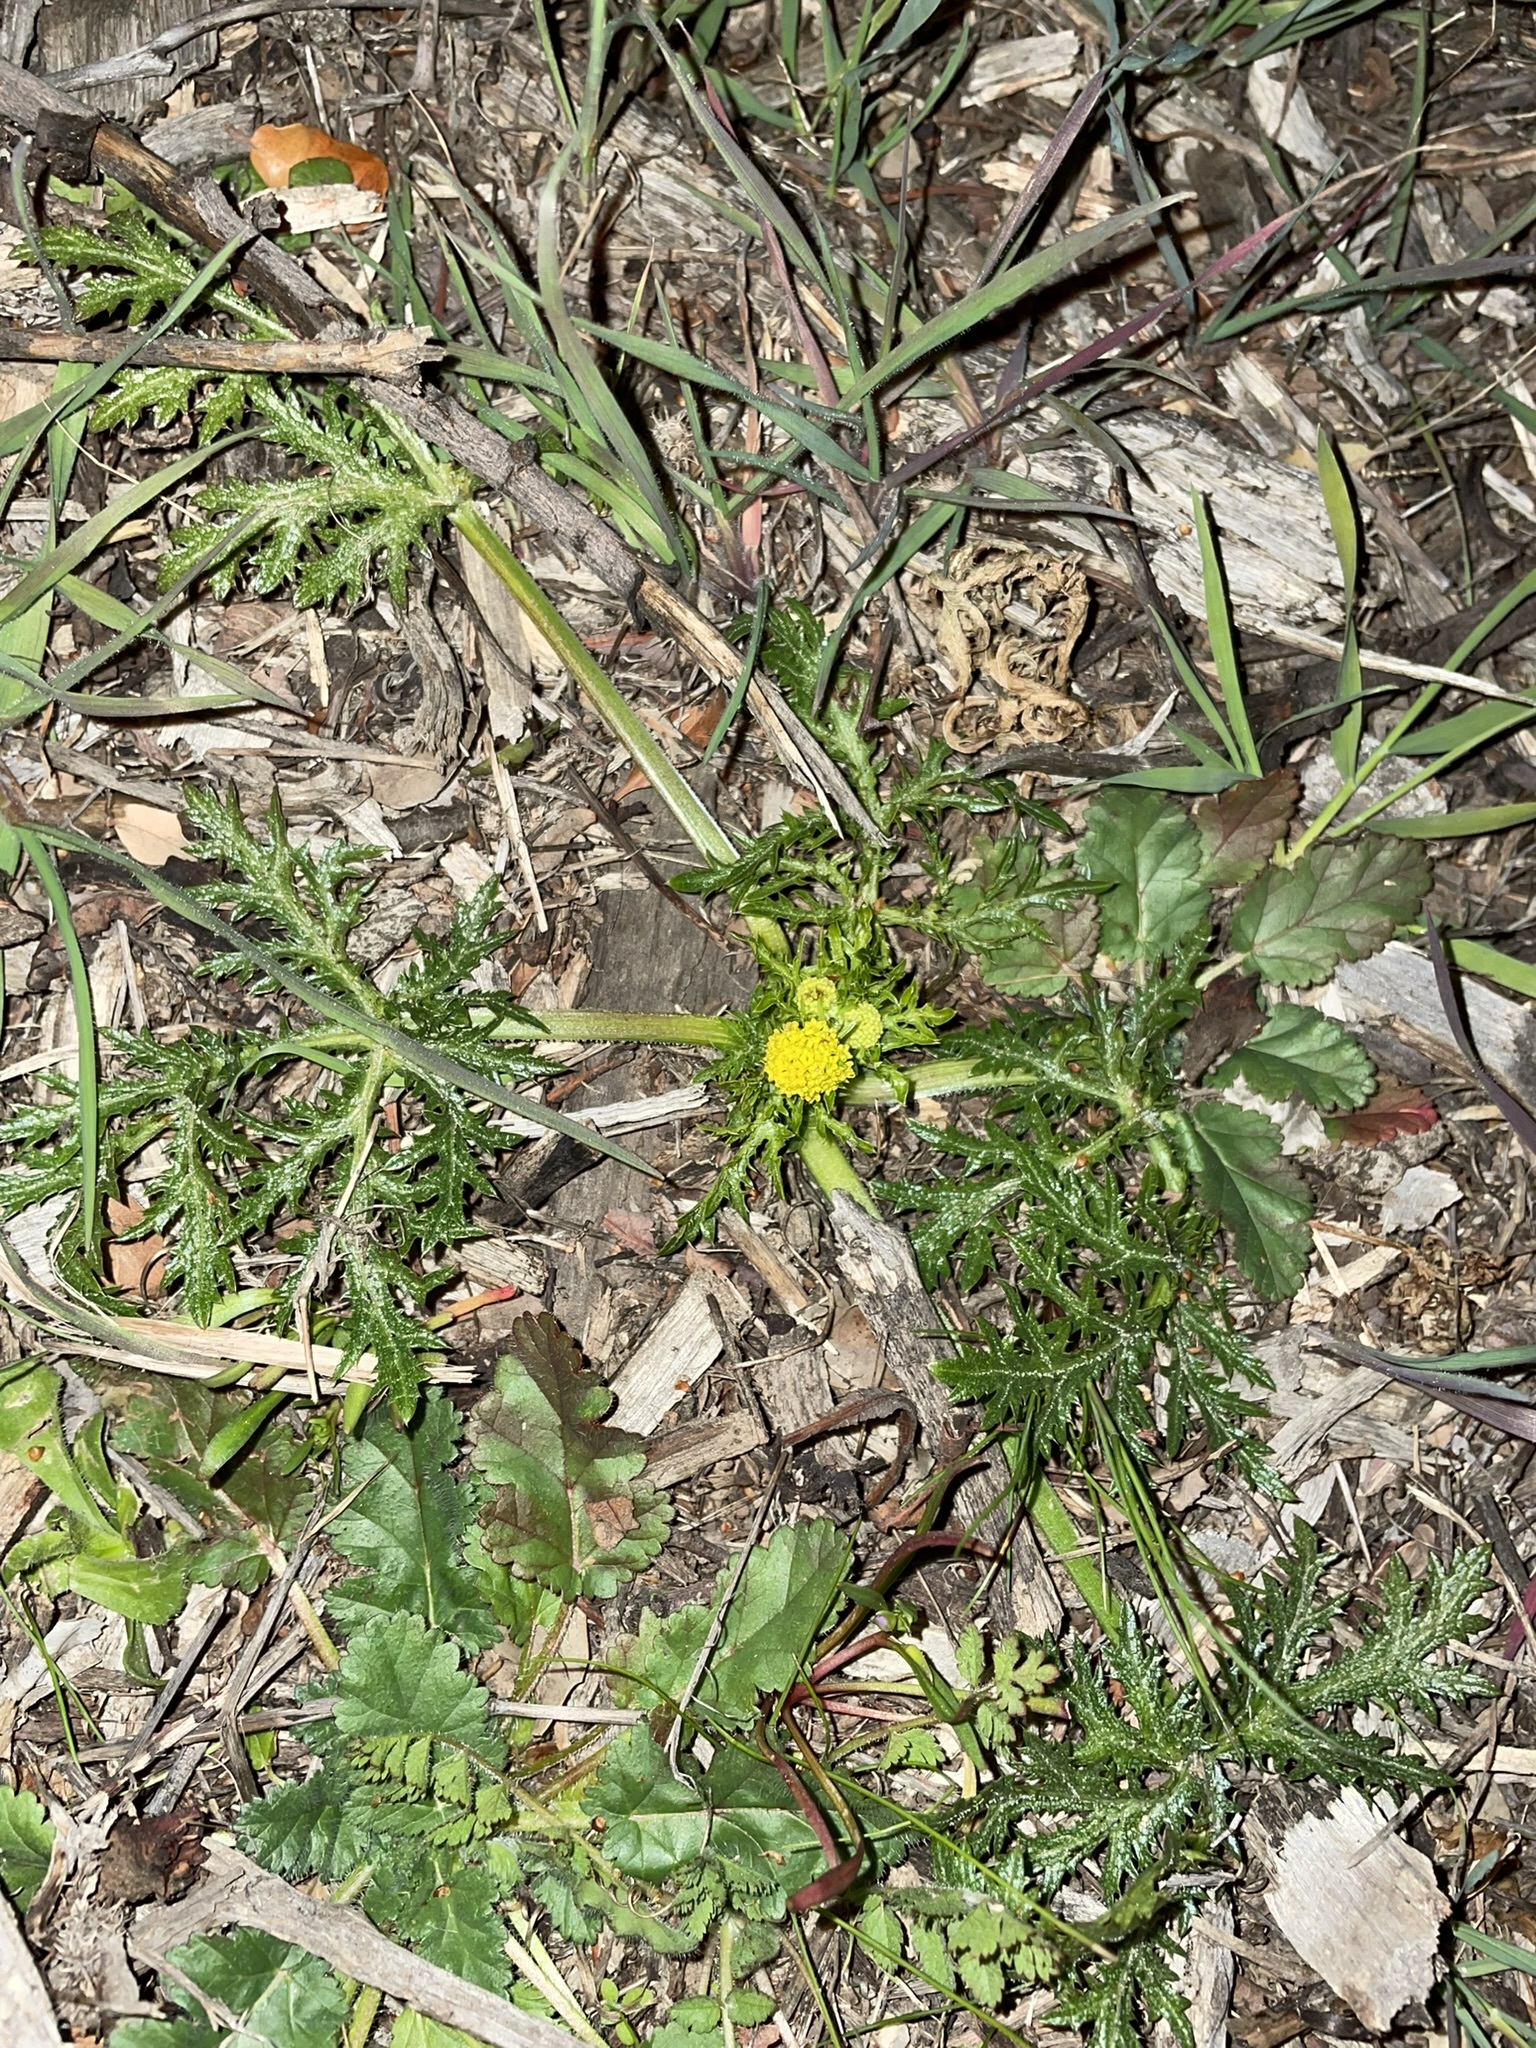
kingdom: Plantae
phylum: Tracheophyta
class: Magnoliopsida
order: Apiales
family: Apiaceae
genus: Sanicula
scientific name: Sanicula arguta
